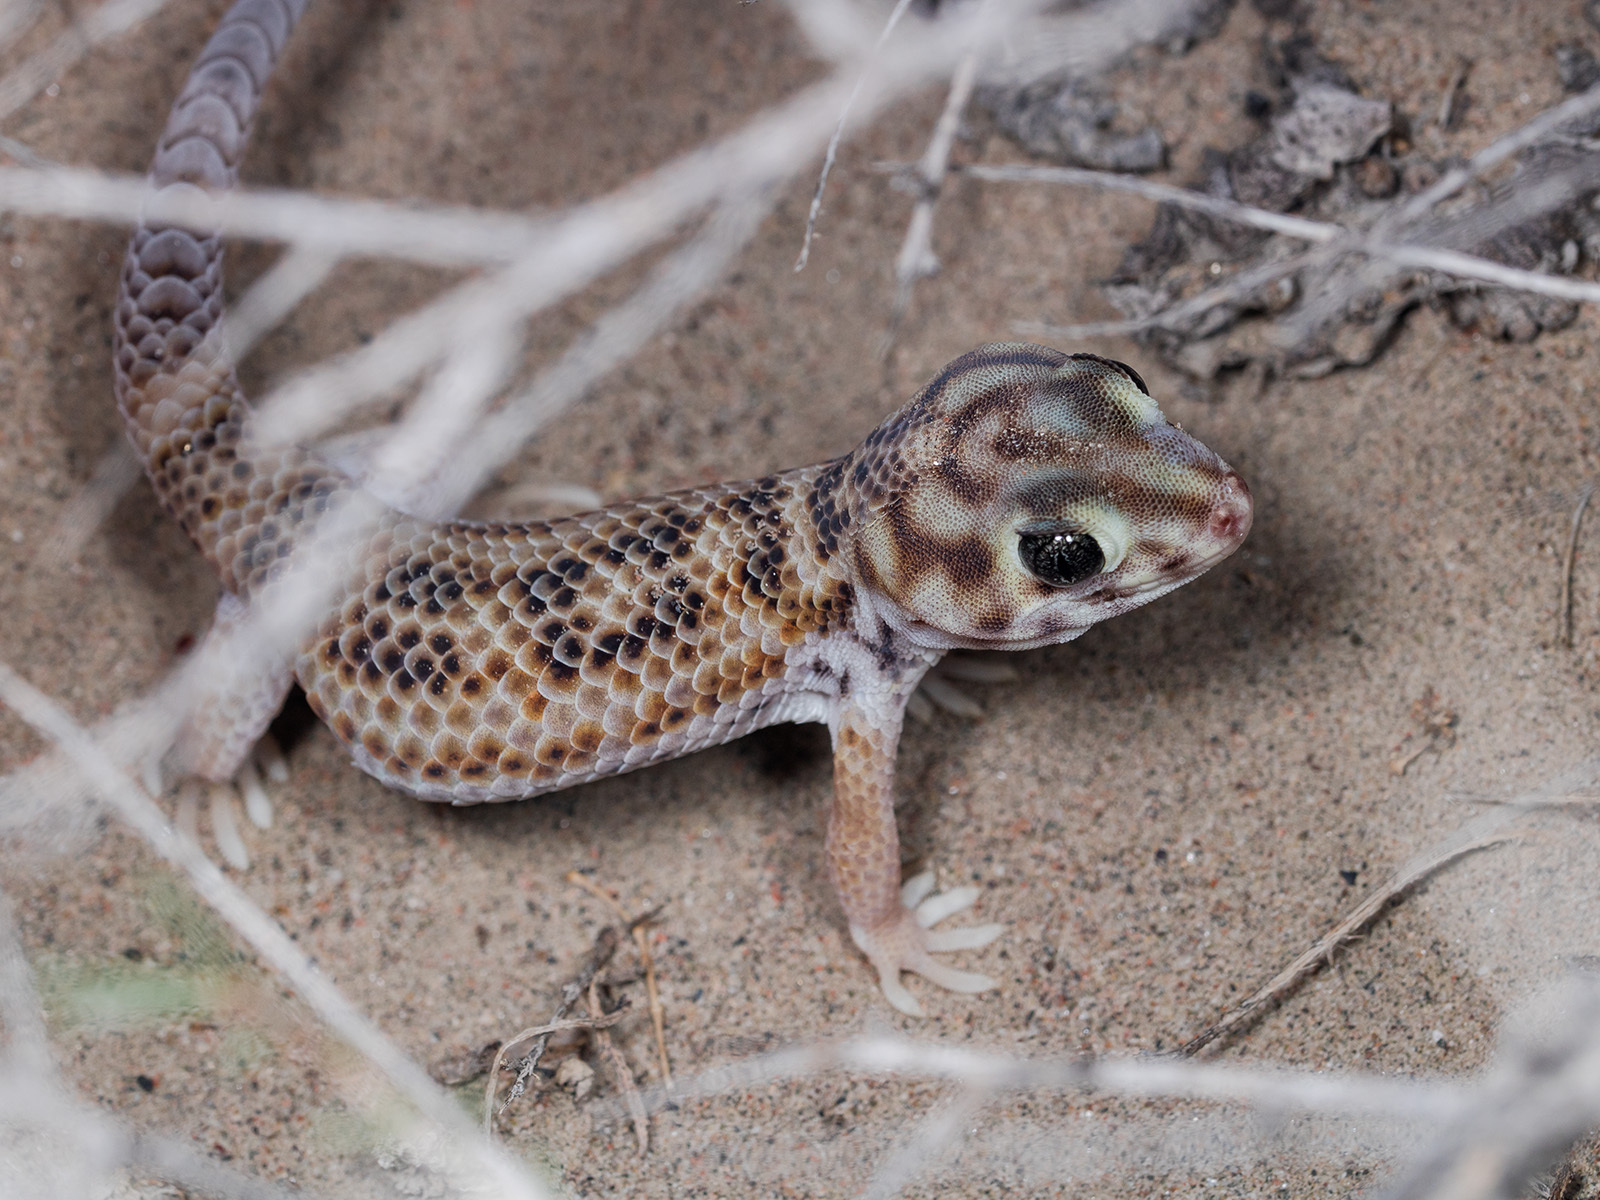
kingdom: Animalia
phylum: Chordata
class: Squamata
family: Sphaerodactylidae
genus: Teratoscincus
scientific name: Teratoscincus scincus
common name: Common wonder gecko
